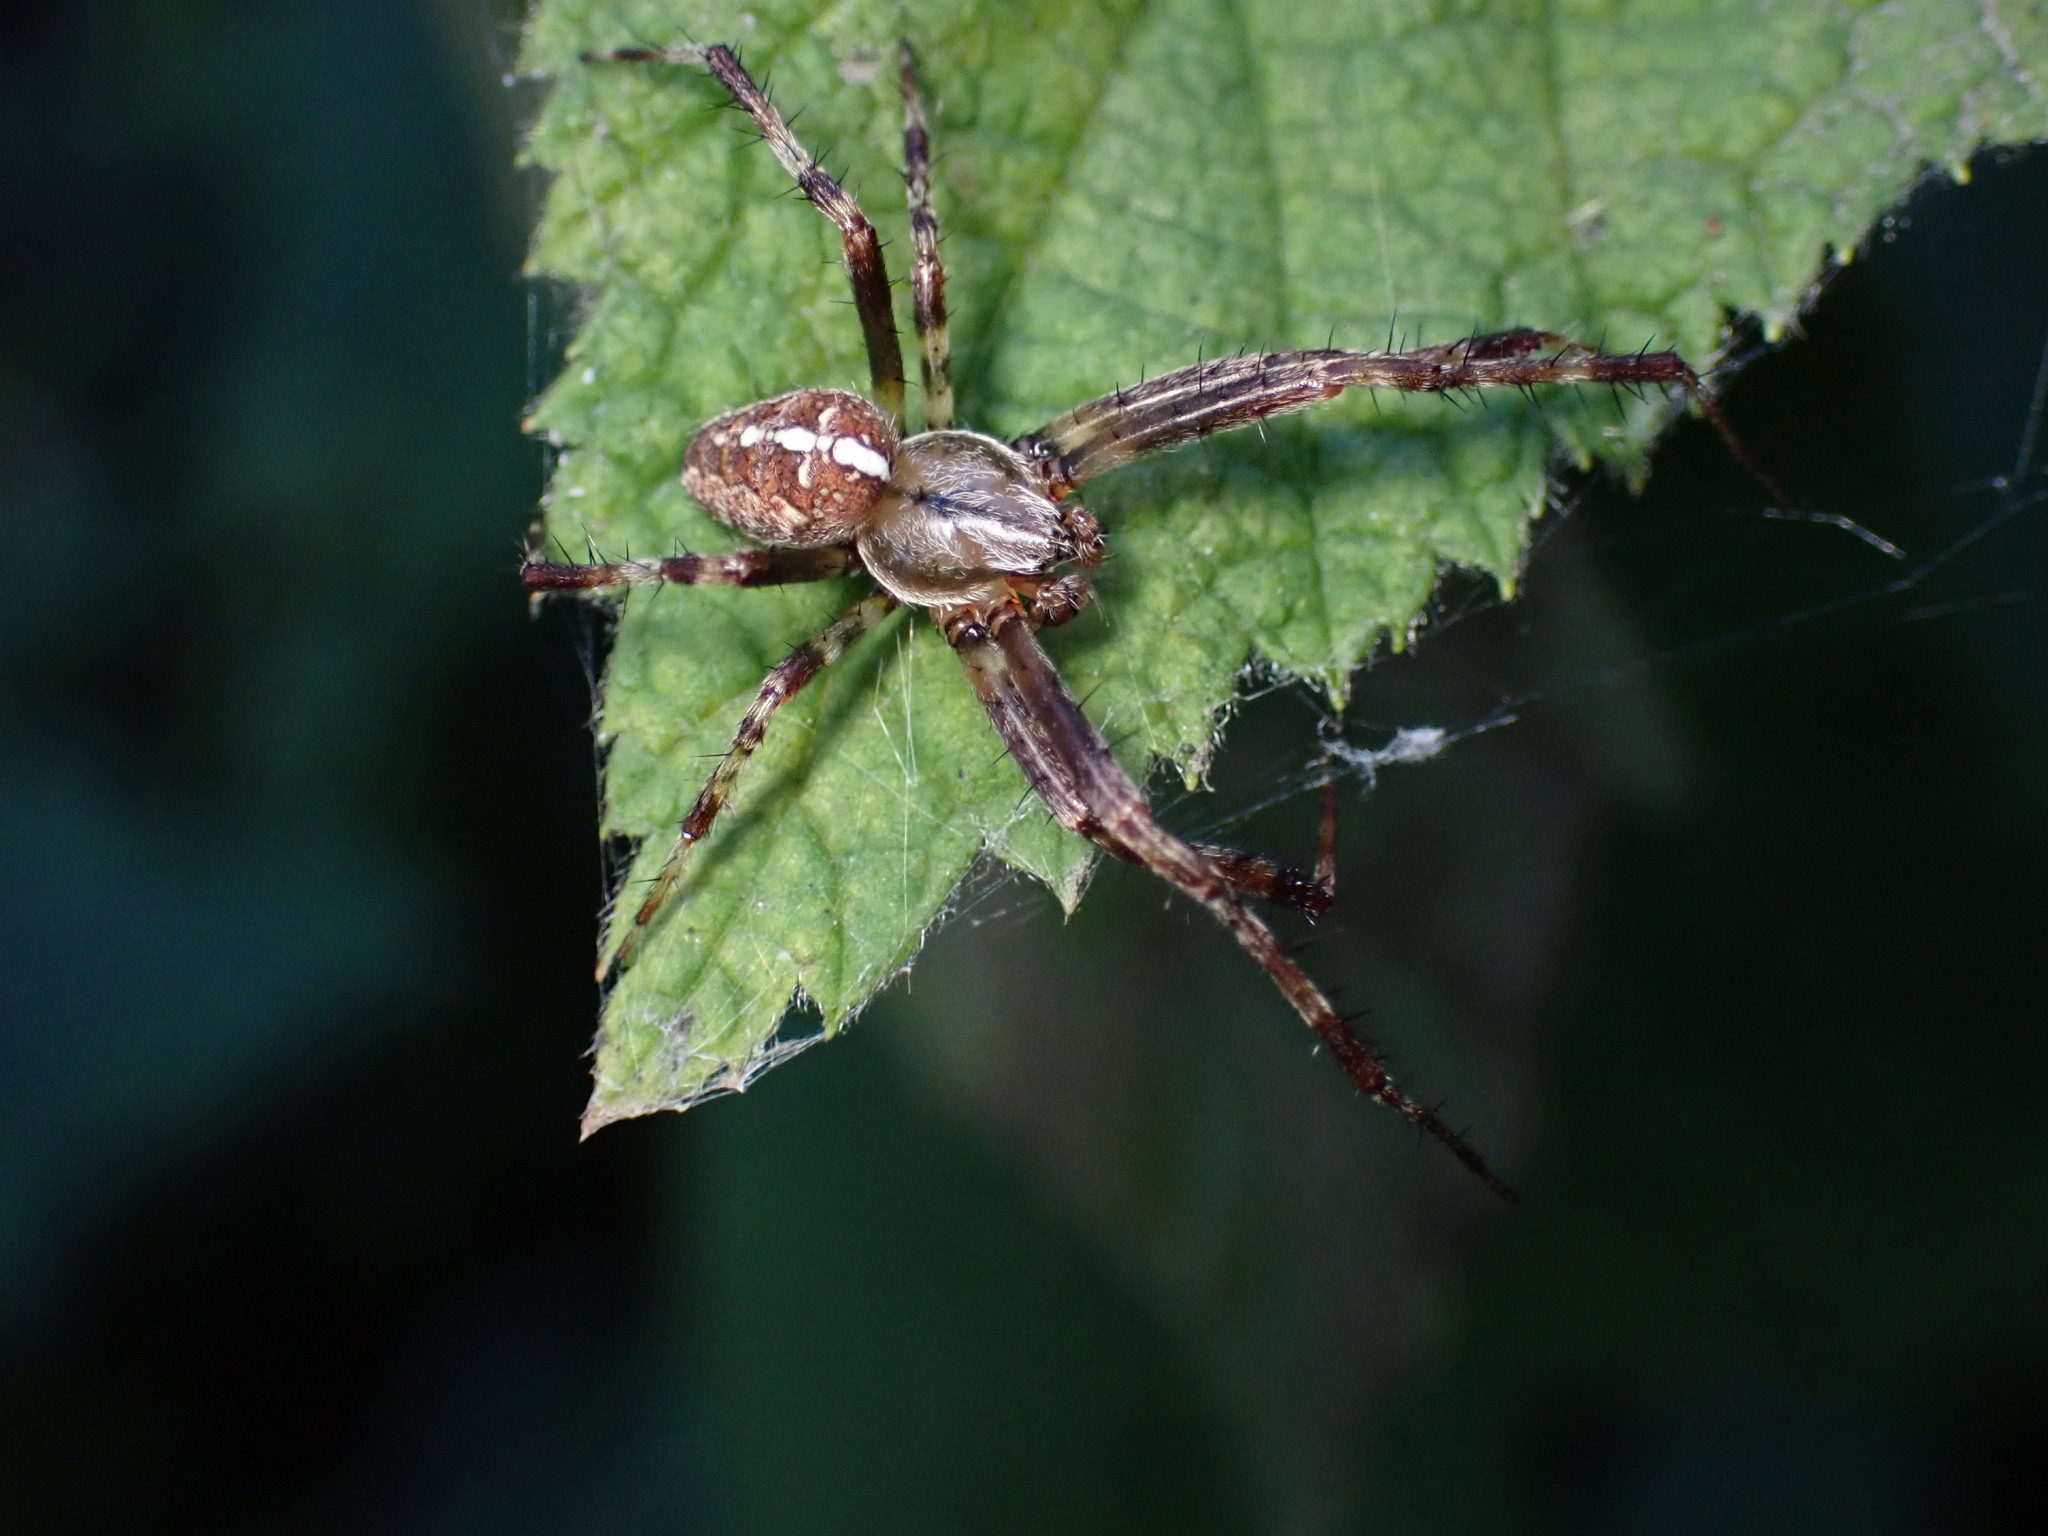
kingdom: Animalia
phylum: Arthropoda
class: Arachnida
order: Araneae
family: Araneidae
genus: Araneus
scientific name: Araneus diadematus
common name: Cross orbweaver
